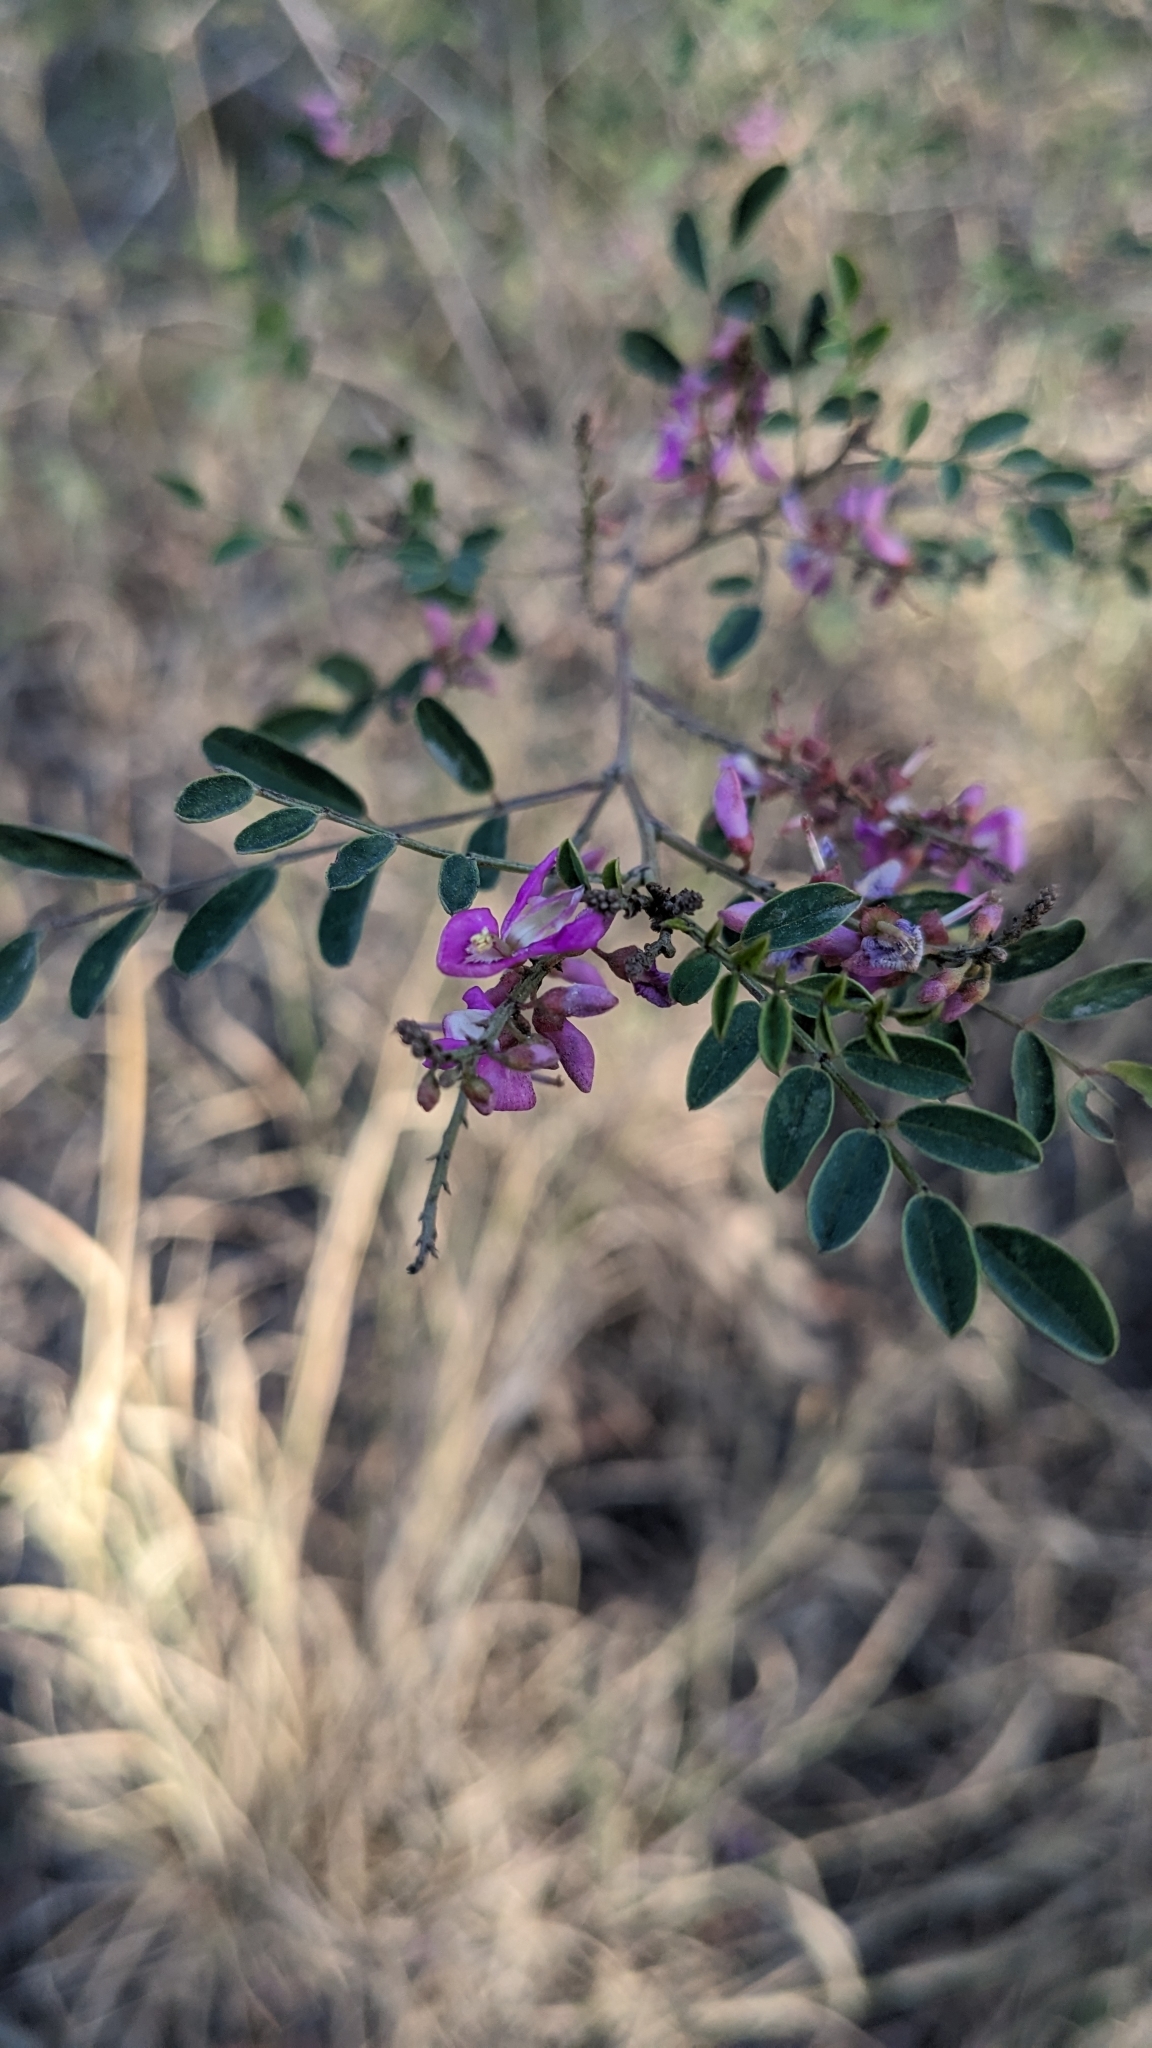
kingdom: Plantae
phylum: Tracheophyta
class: Magnoliopsida
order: Fabales
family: Fabaceae
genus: Indigofera
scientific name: Indigofera australis
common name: Australian indigo
